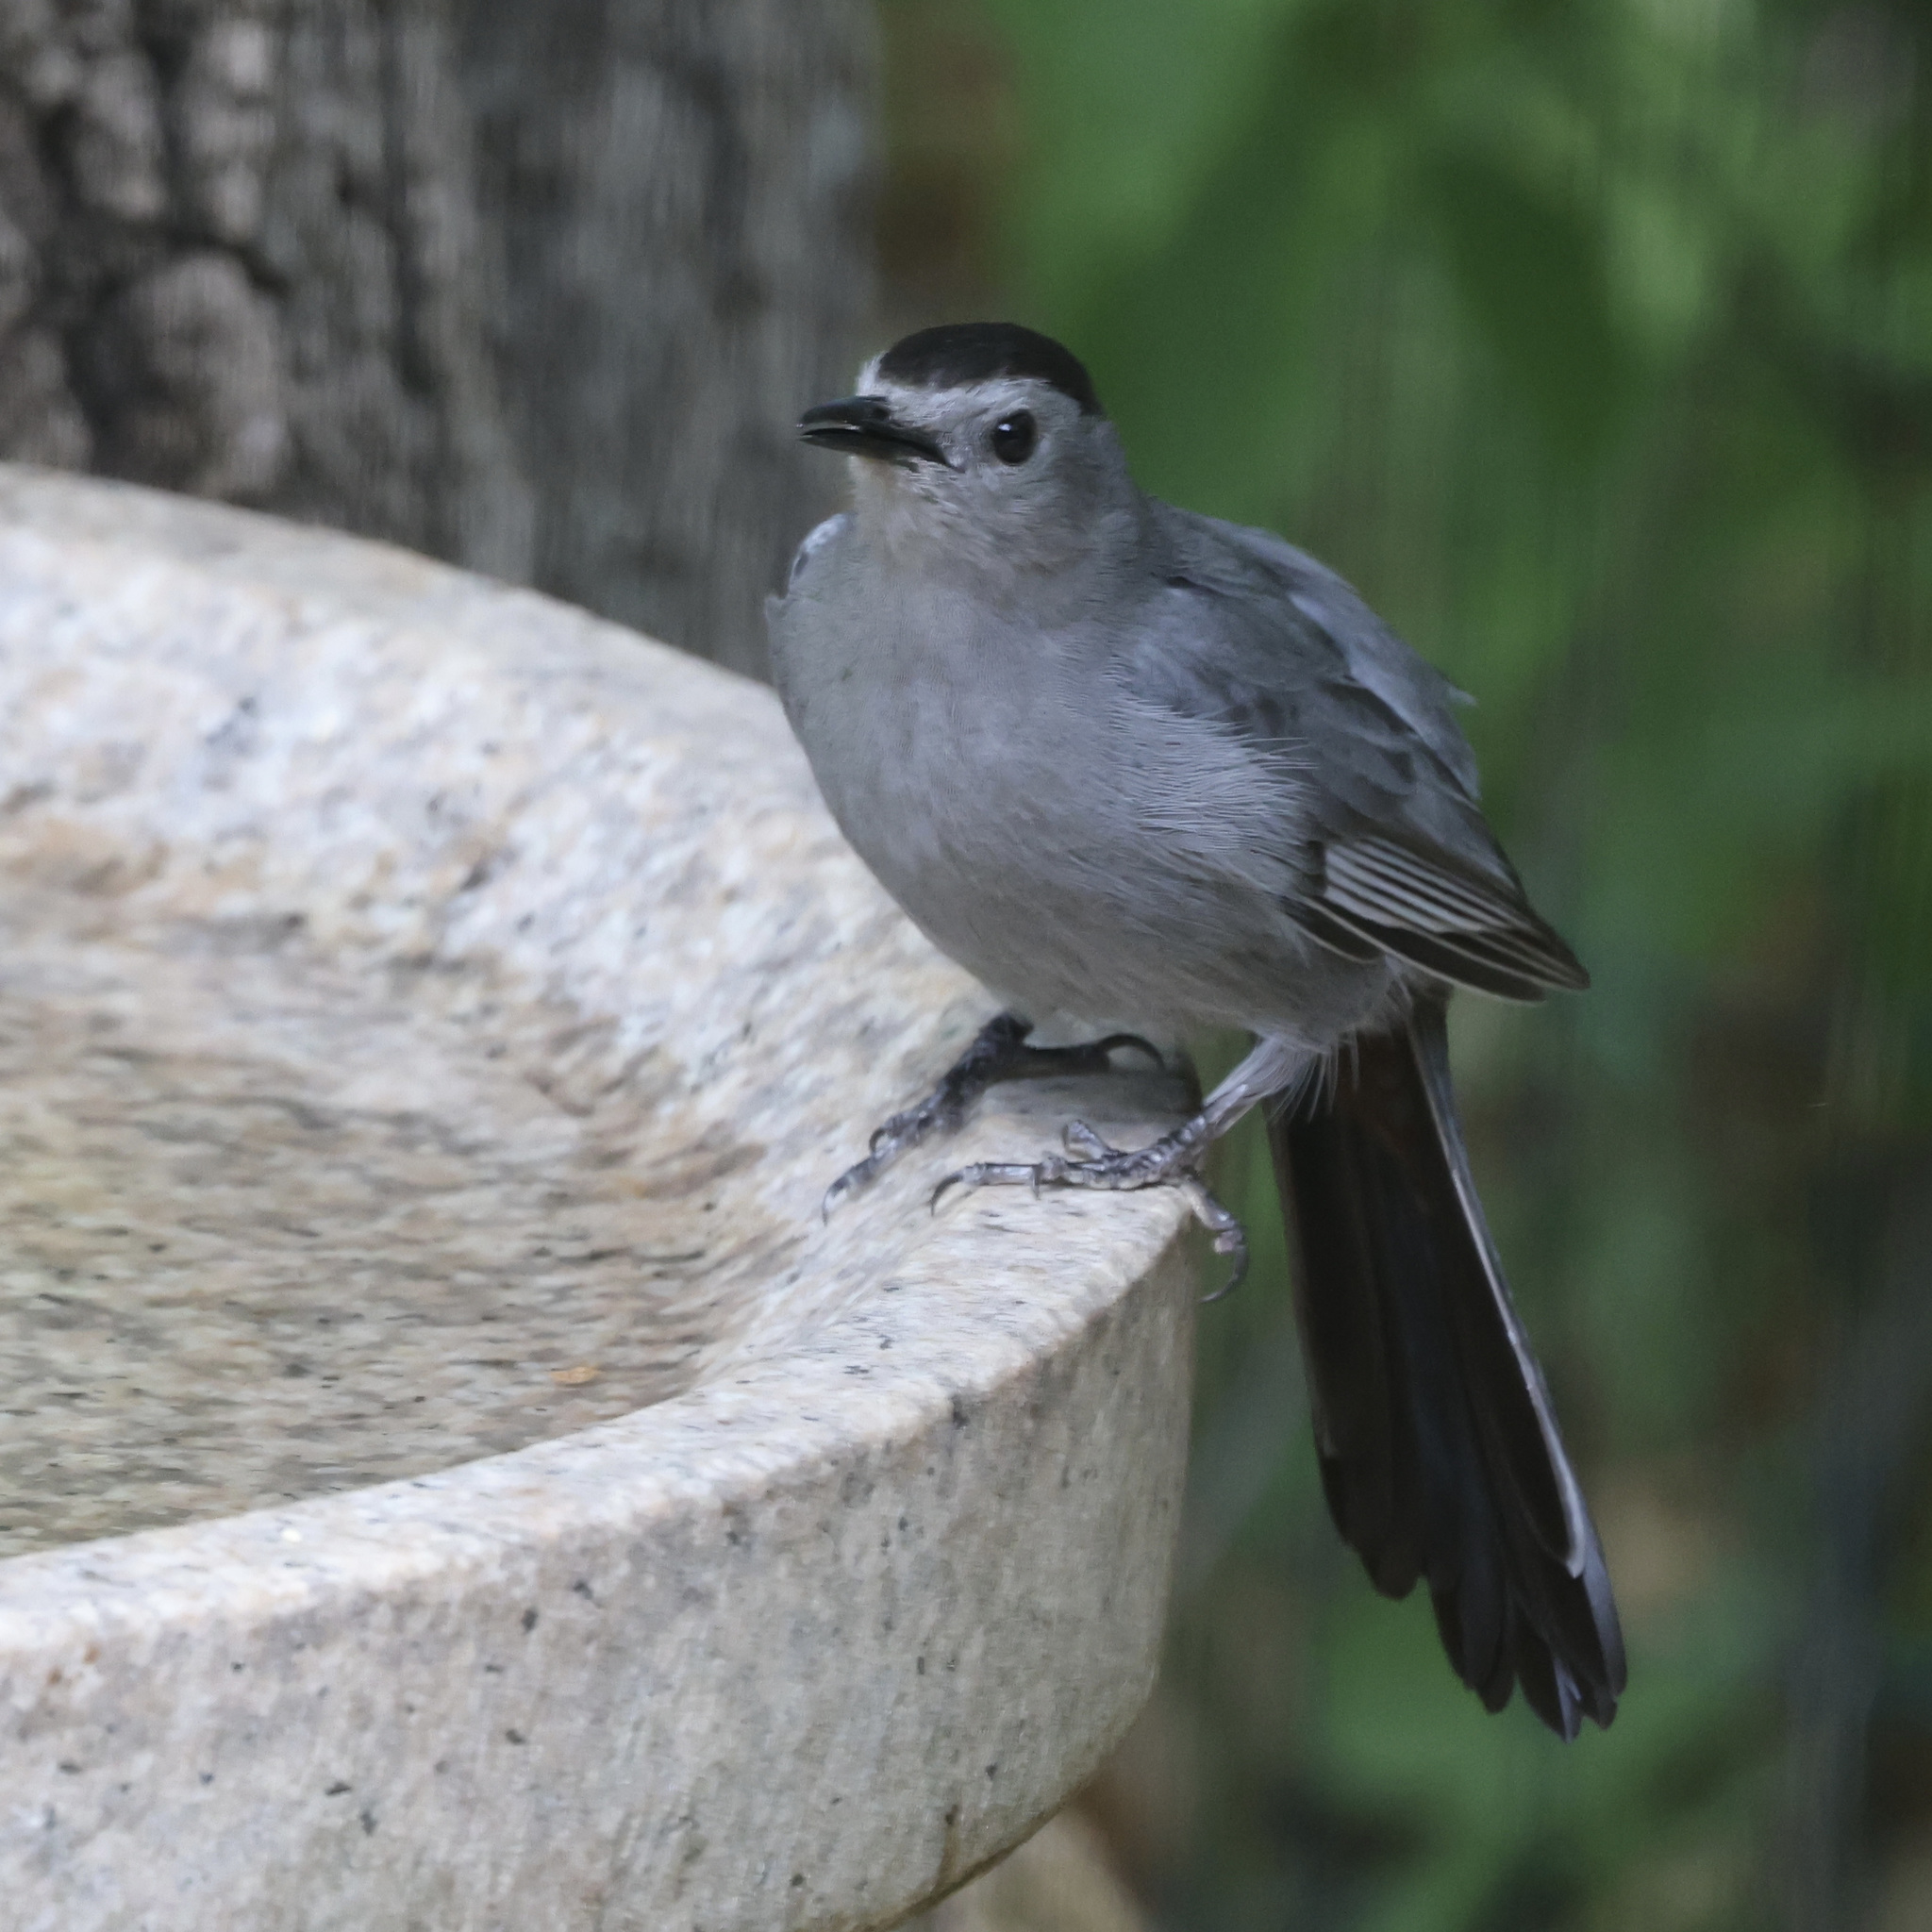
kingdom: Animalia
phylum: Chordata
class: Aves
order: Passeriformes
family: Mimidae
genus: Dumetella
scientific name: Dumetella carolinensis
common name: Gray catbird
